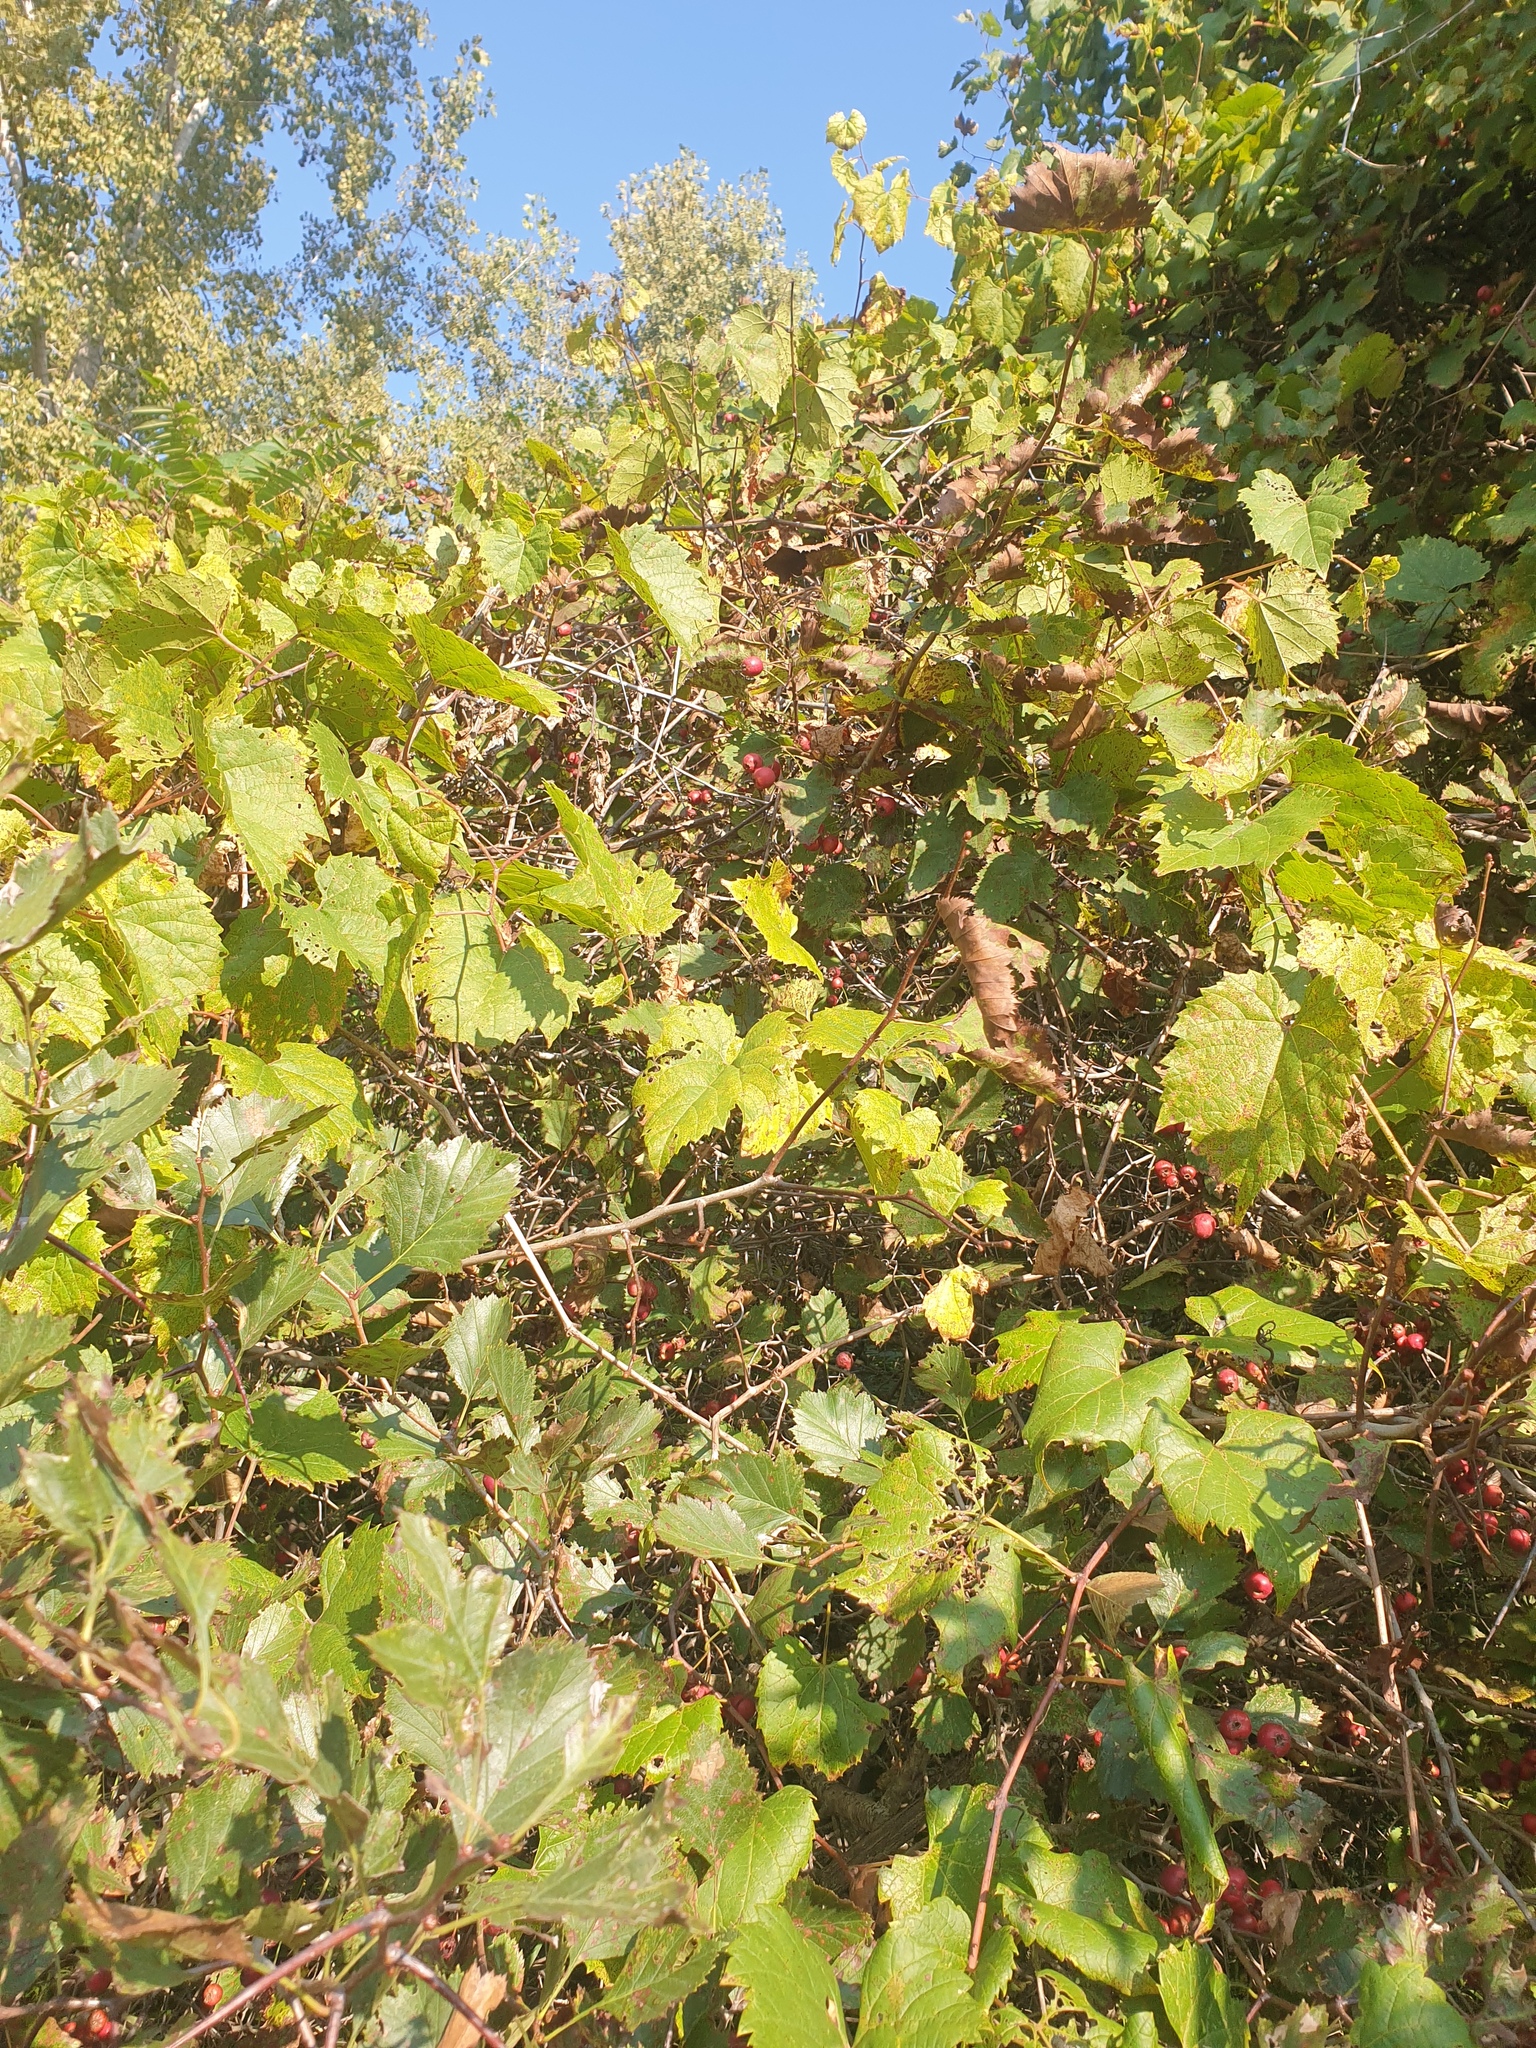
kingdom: Plantae
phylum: Tracheophyta
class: Magnoliopsida
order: Rosales
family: Rosaceae
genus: Crataegus
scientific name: Crataegus chrysocarpa
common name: Fire-berry hawthorn
